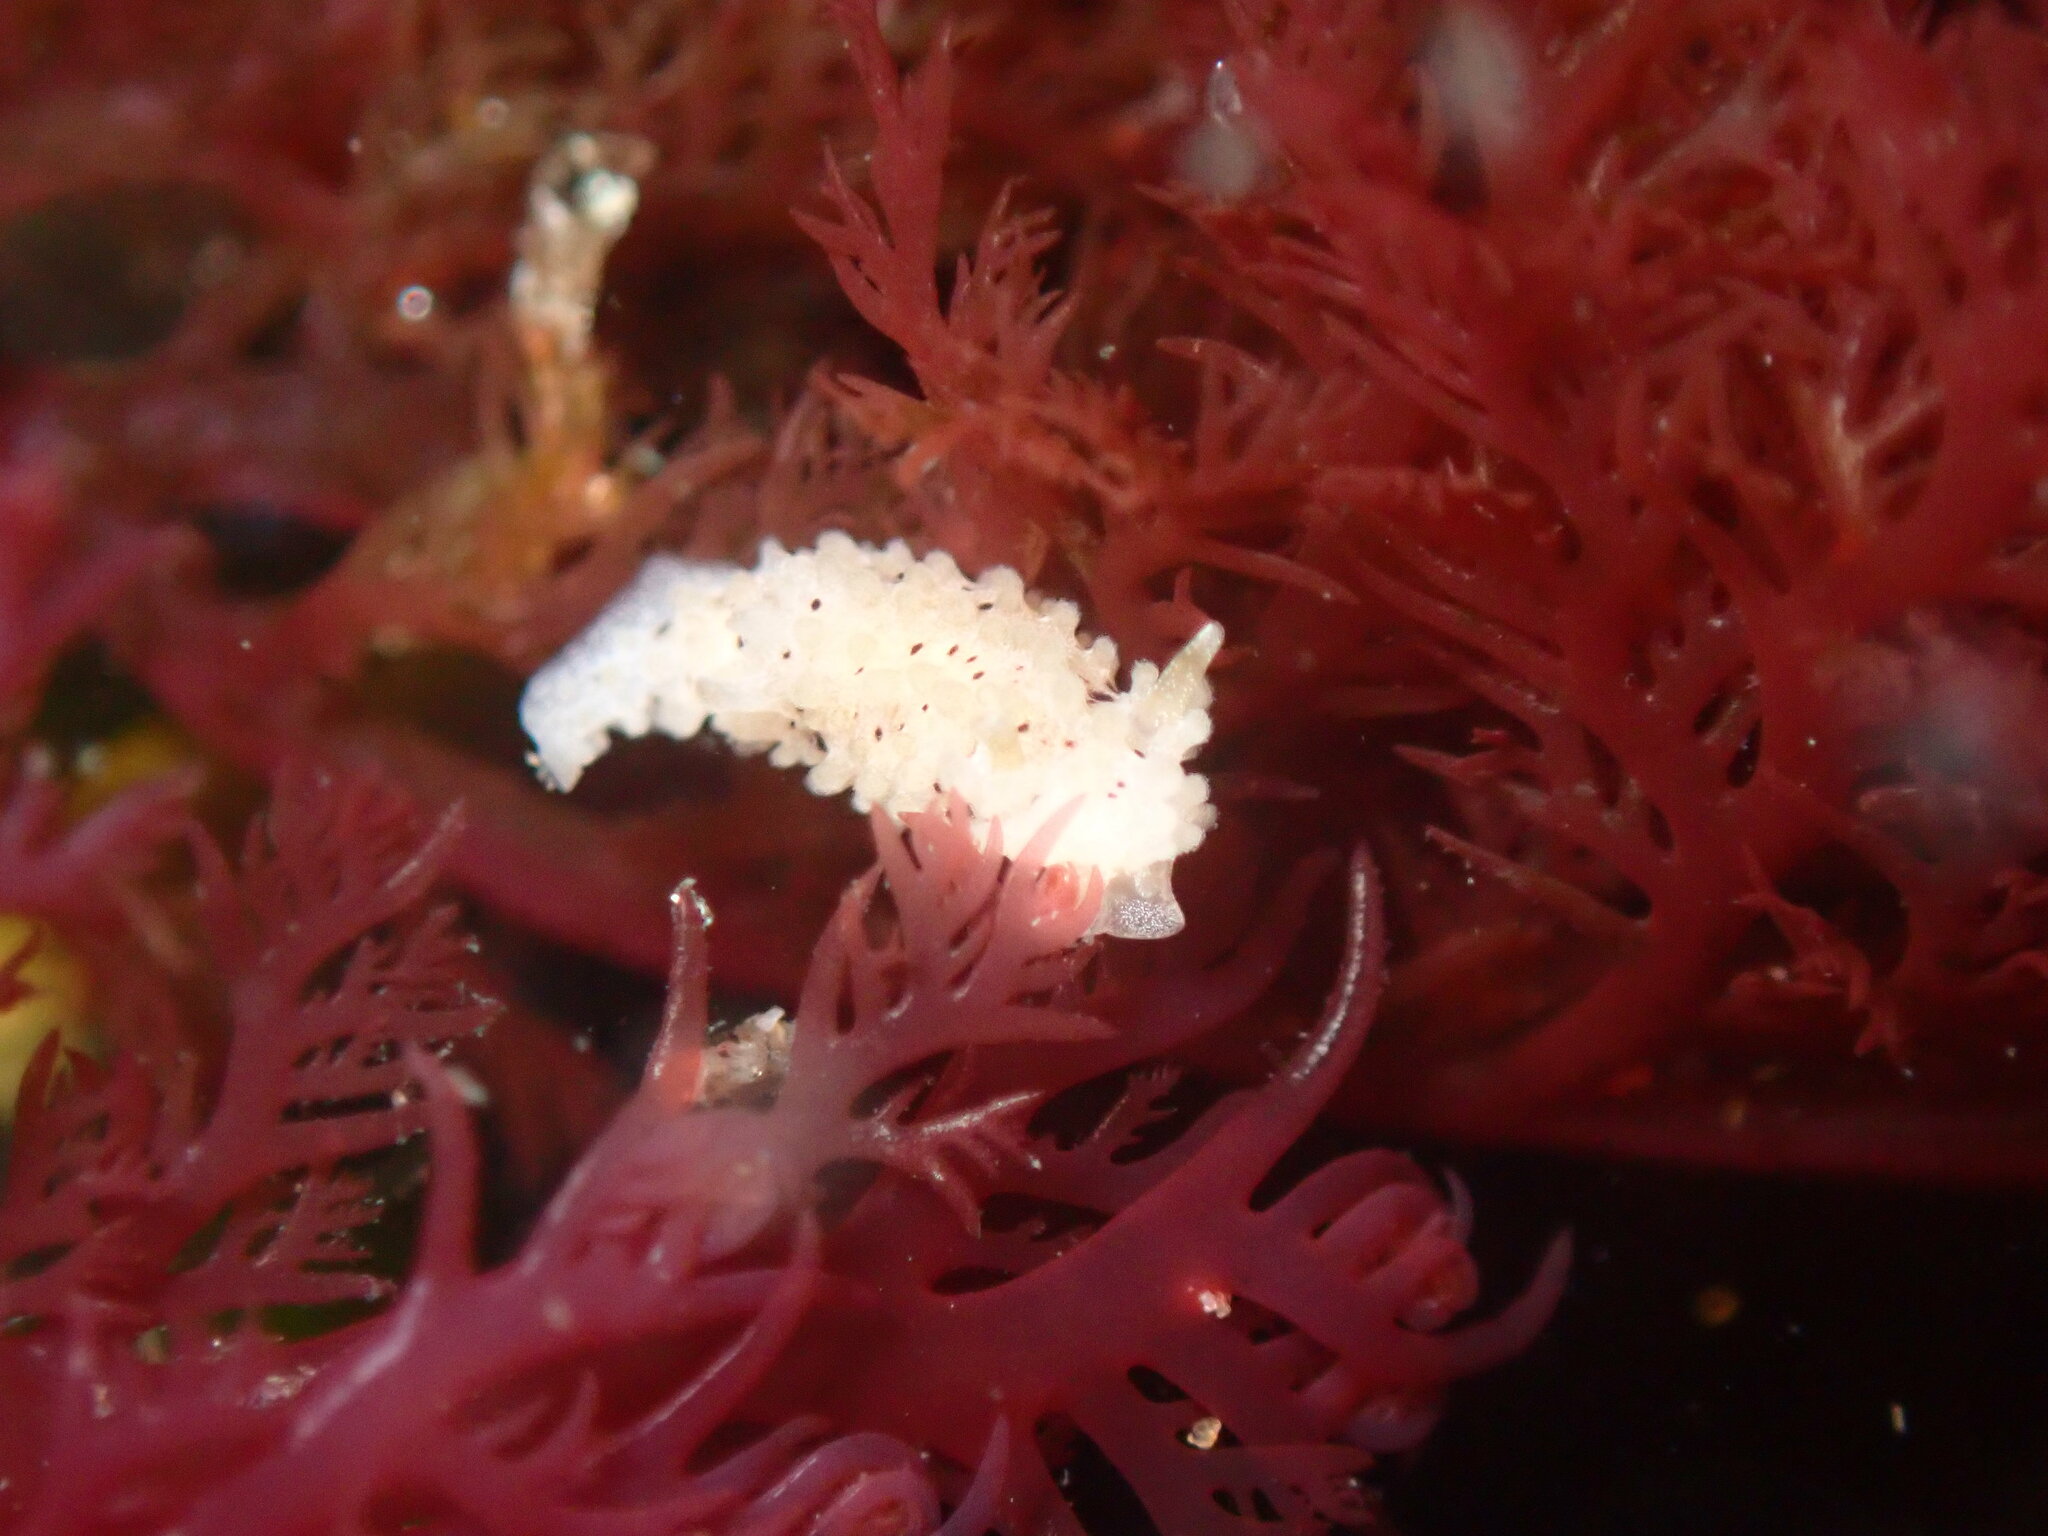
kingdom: Animalia
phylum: Mollusca
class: Gastropoda
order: Nudibranchia
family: Aegiridae
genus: Aegires
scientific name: Aegires albopunctatus
